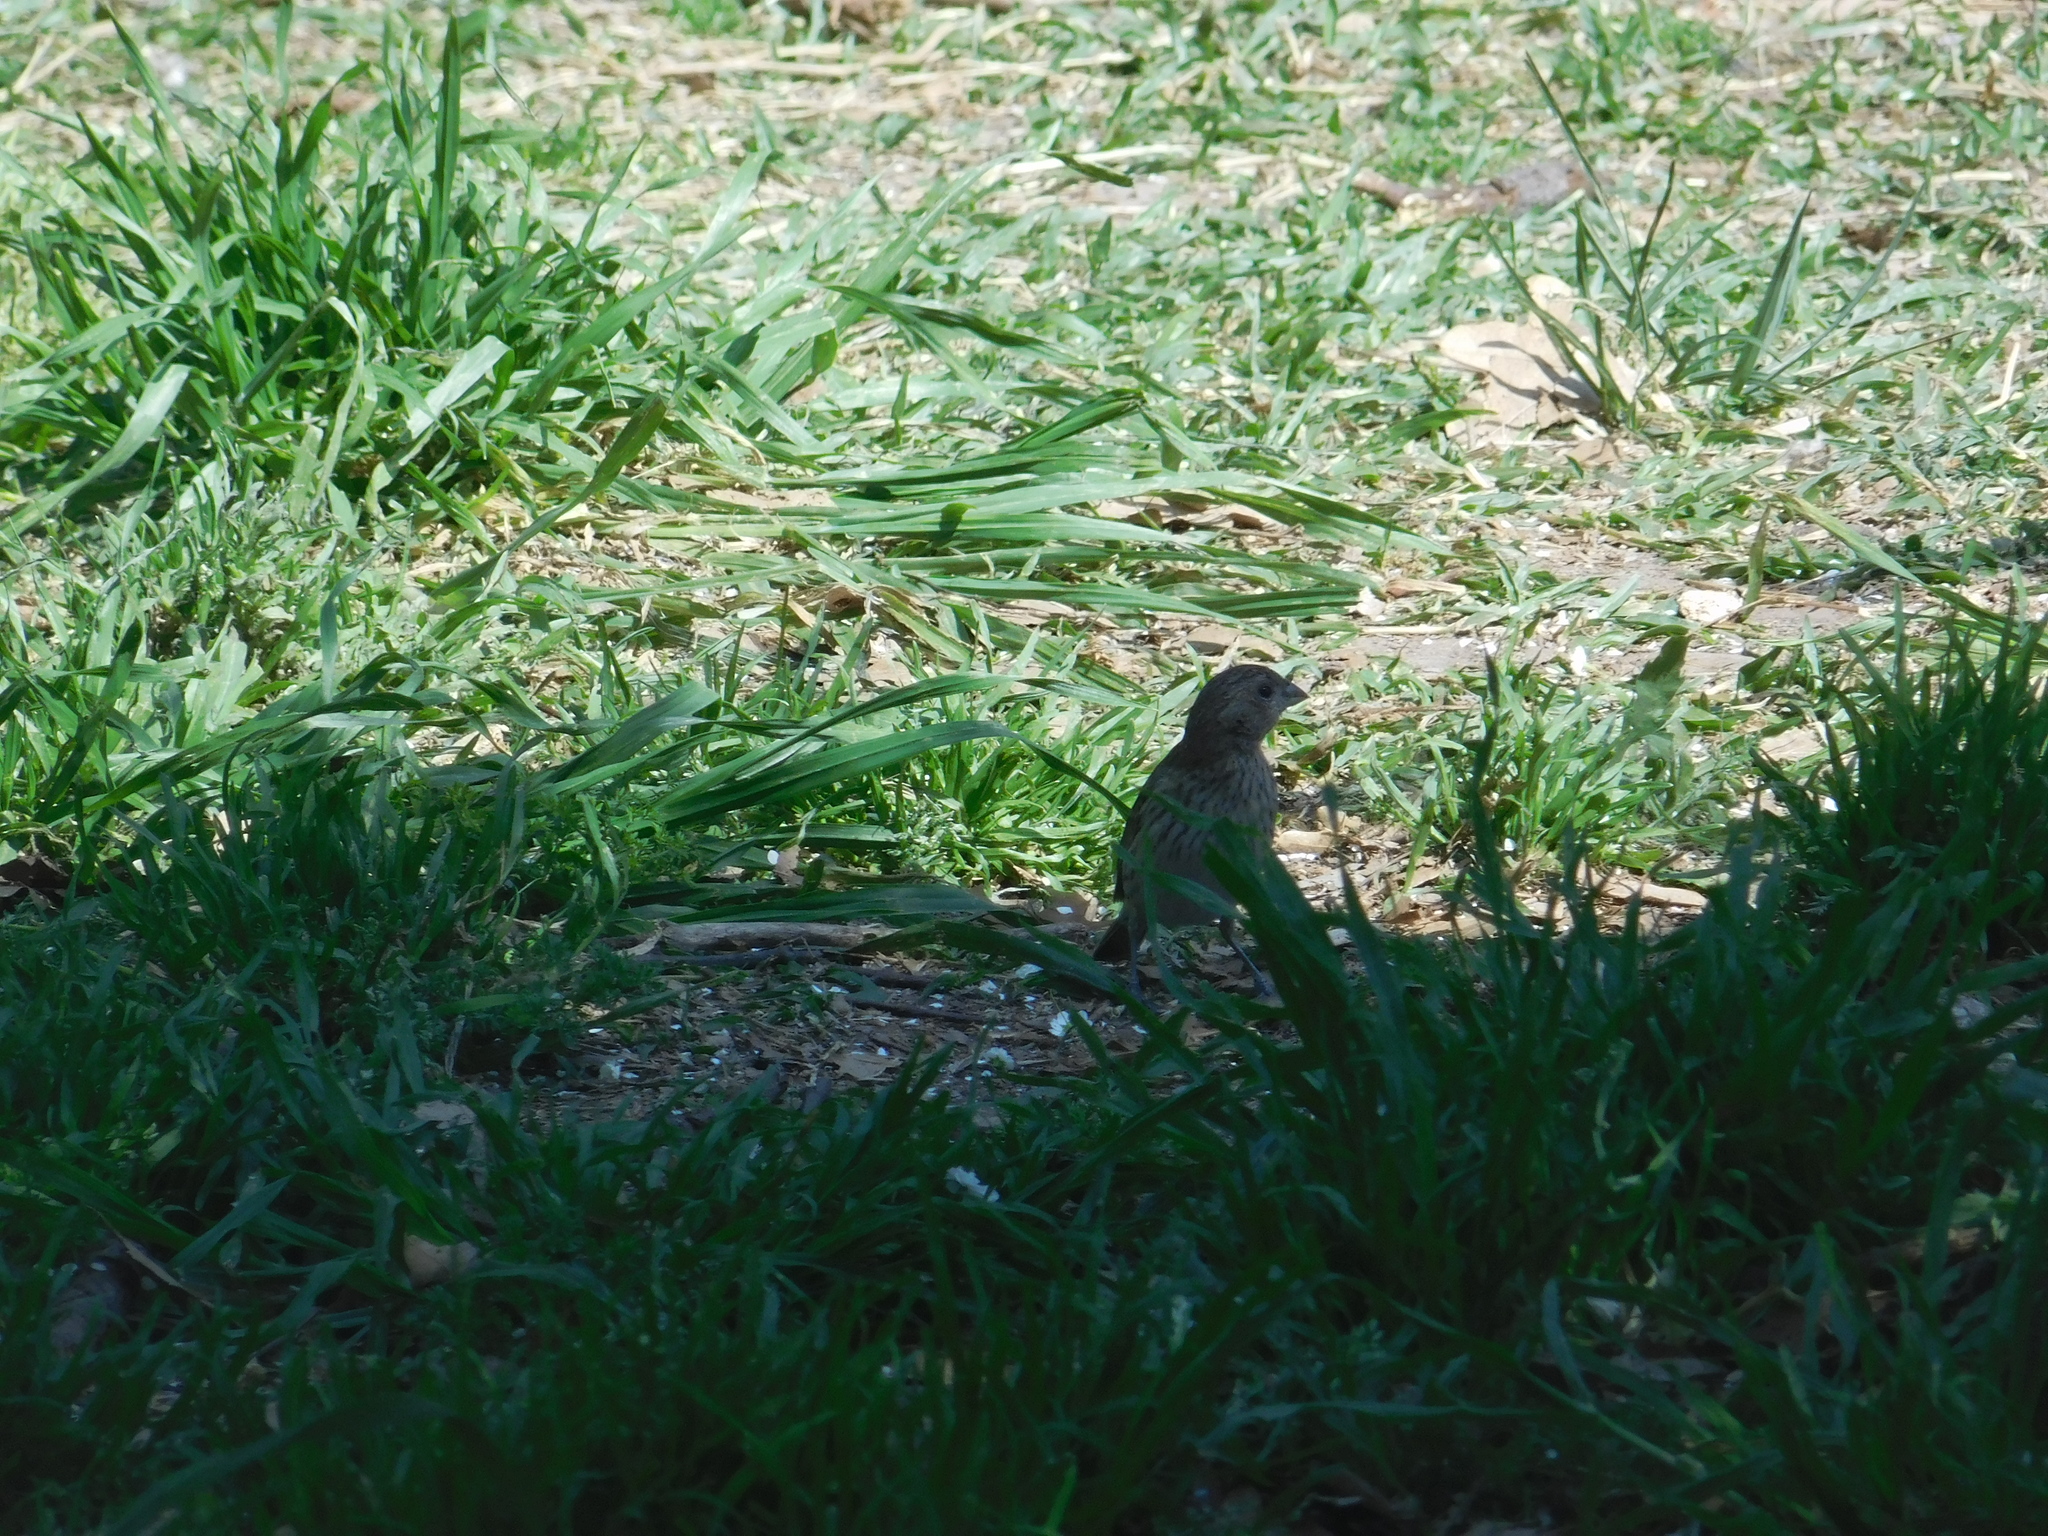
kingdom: Animalia
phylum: Chordata
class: Aves
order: Passeriformes
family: Thraupidae
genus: Sicalis
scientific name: Sicalis flaveola
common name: Saffron finch
